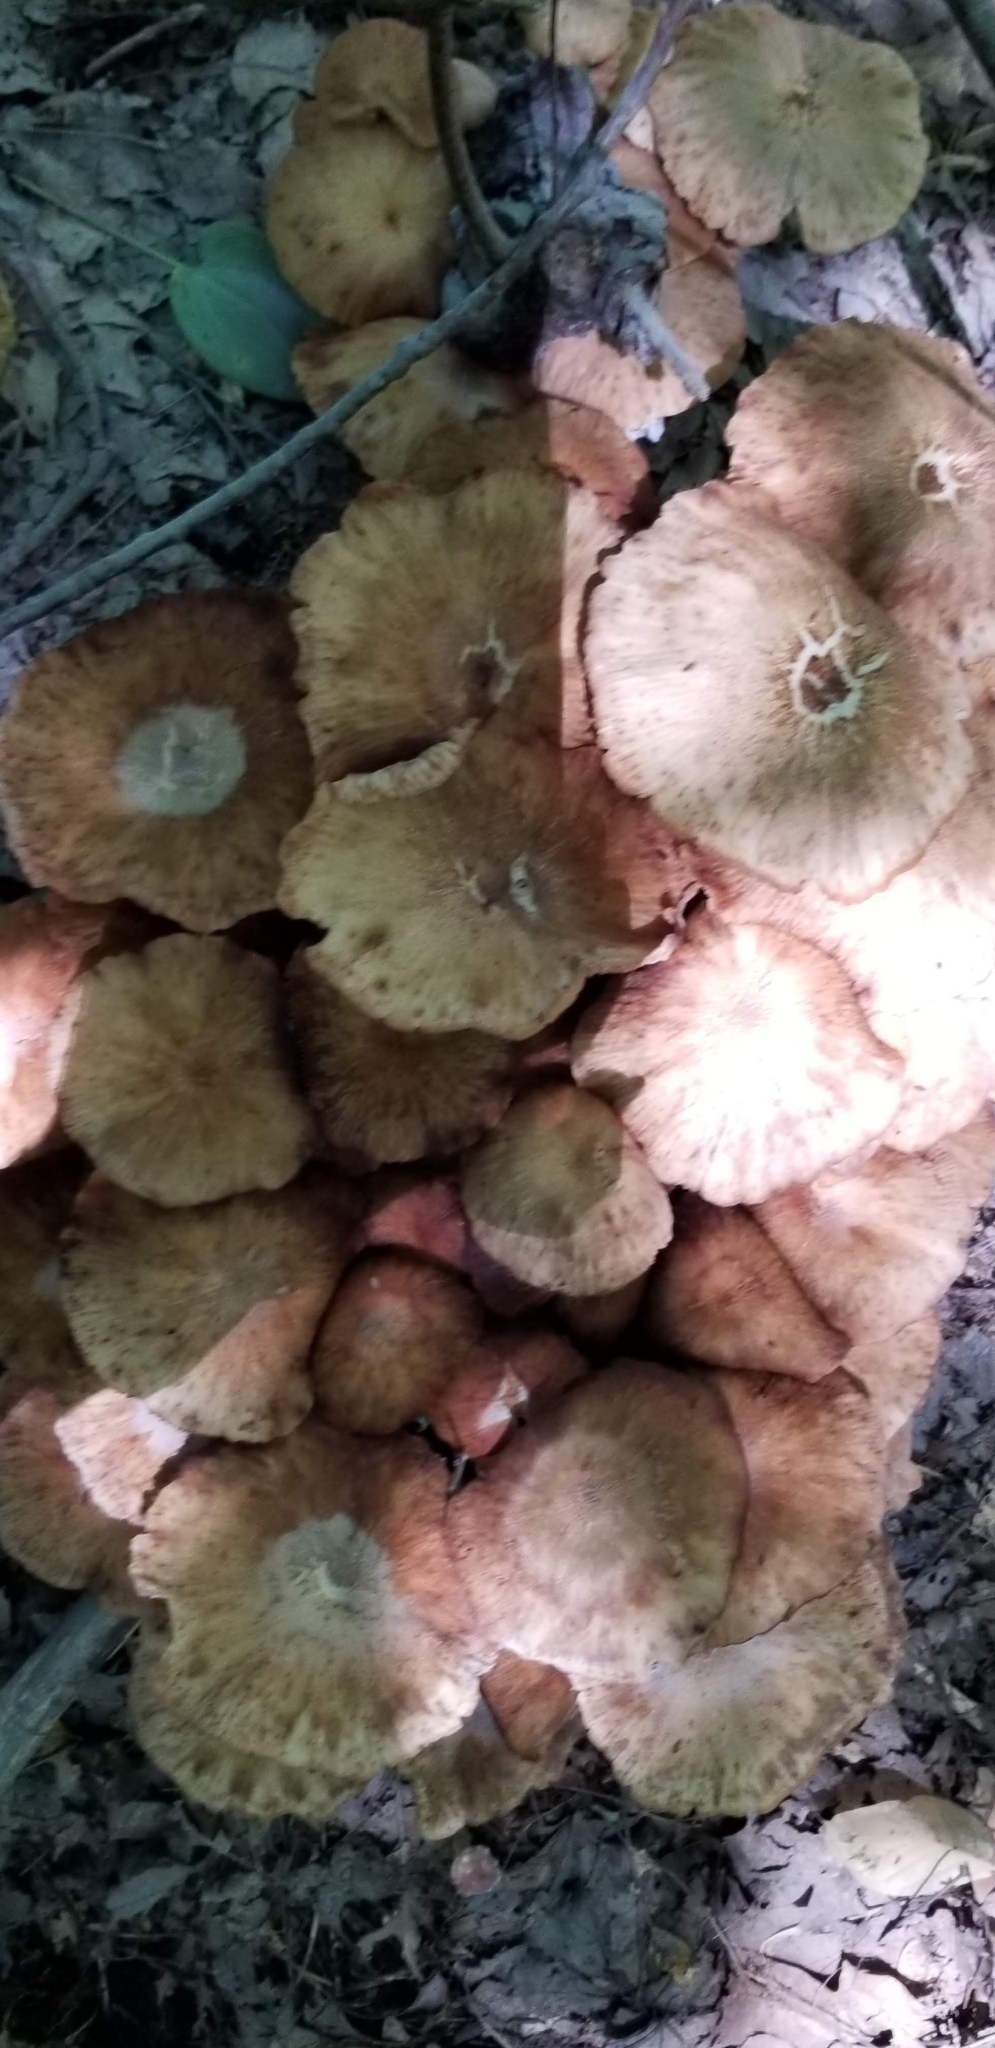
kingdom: Fungi
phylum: Basidiomycota
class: Agaricomycetes
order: Agaricales
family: Physalacriaceae
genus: Desarmillaria
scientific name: Desarmillaria caespitosa
